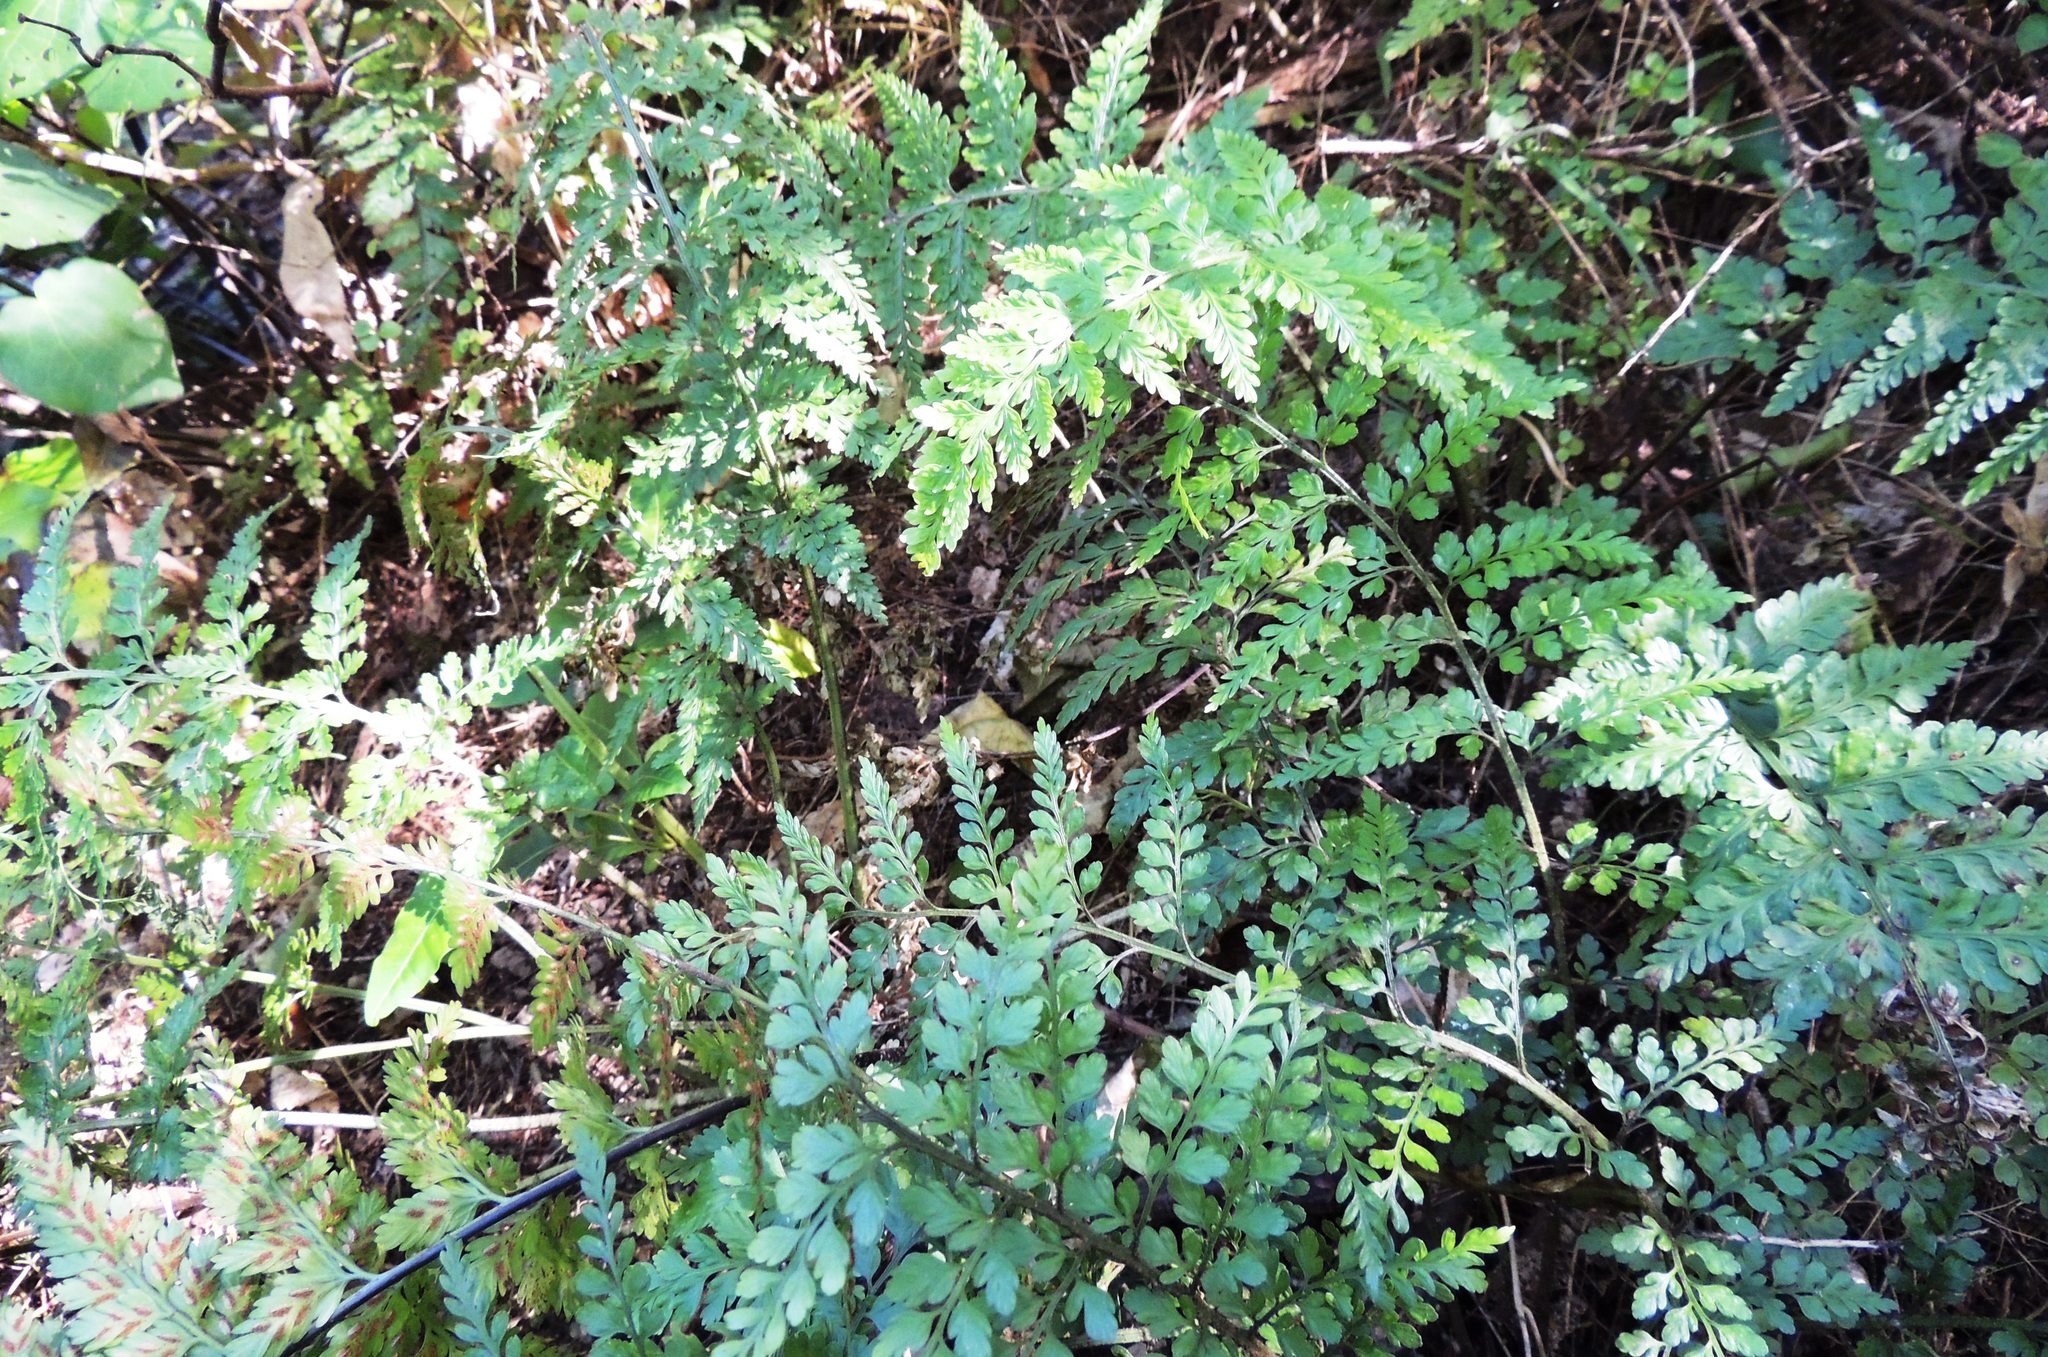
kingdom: Plantae
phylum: Tracheophyta
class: Polypodiopsida
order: Polypodiales
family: Aspleniaceae
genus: Asplenium
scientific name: Asplenium
